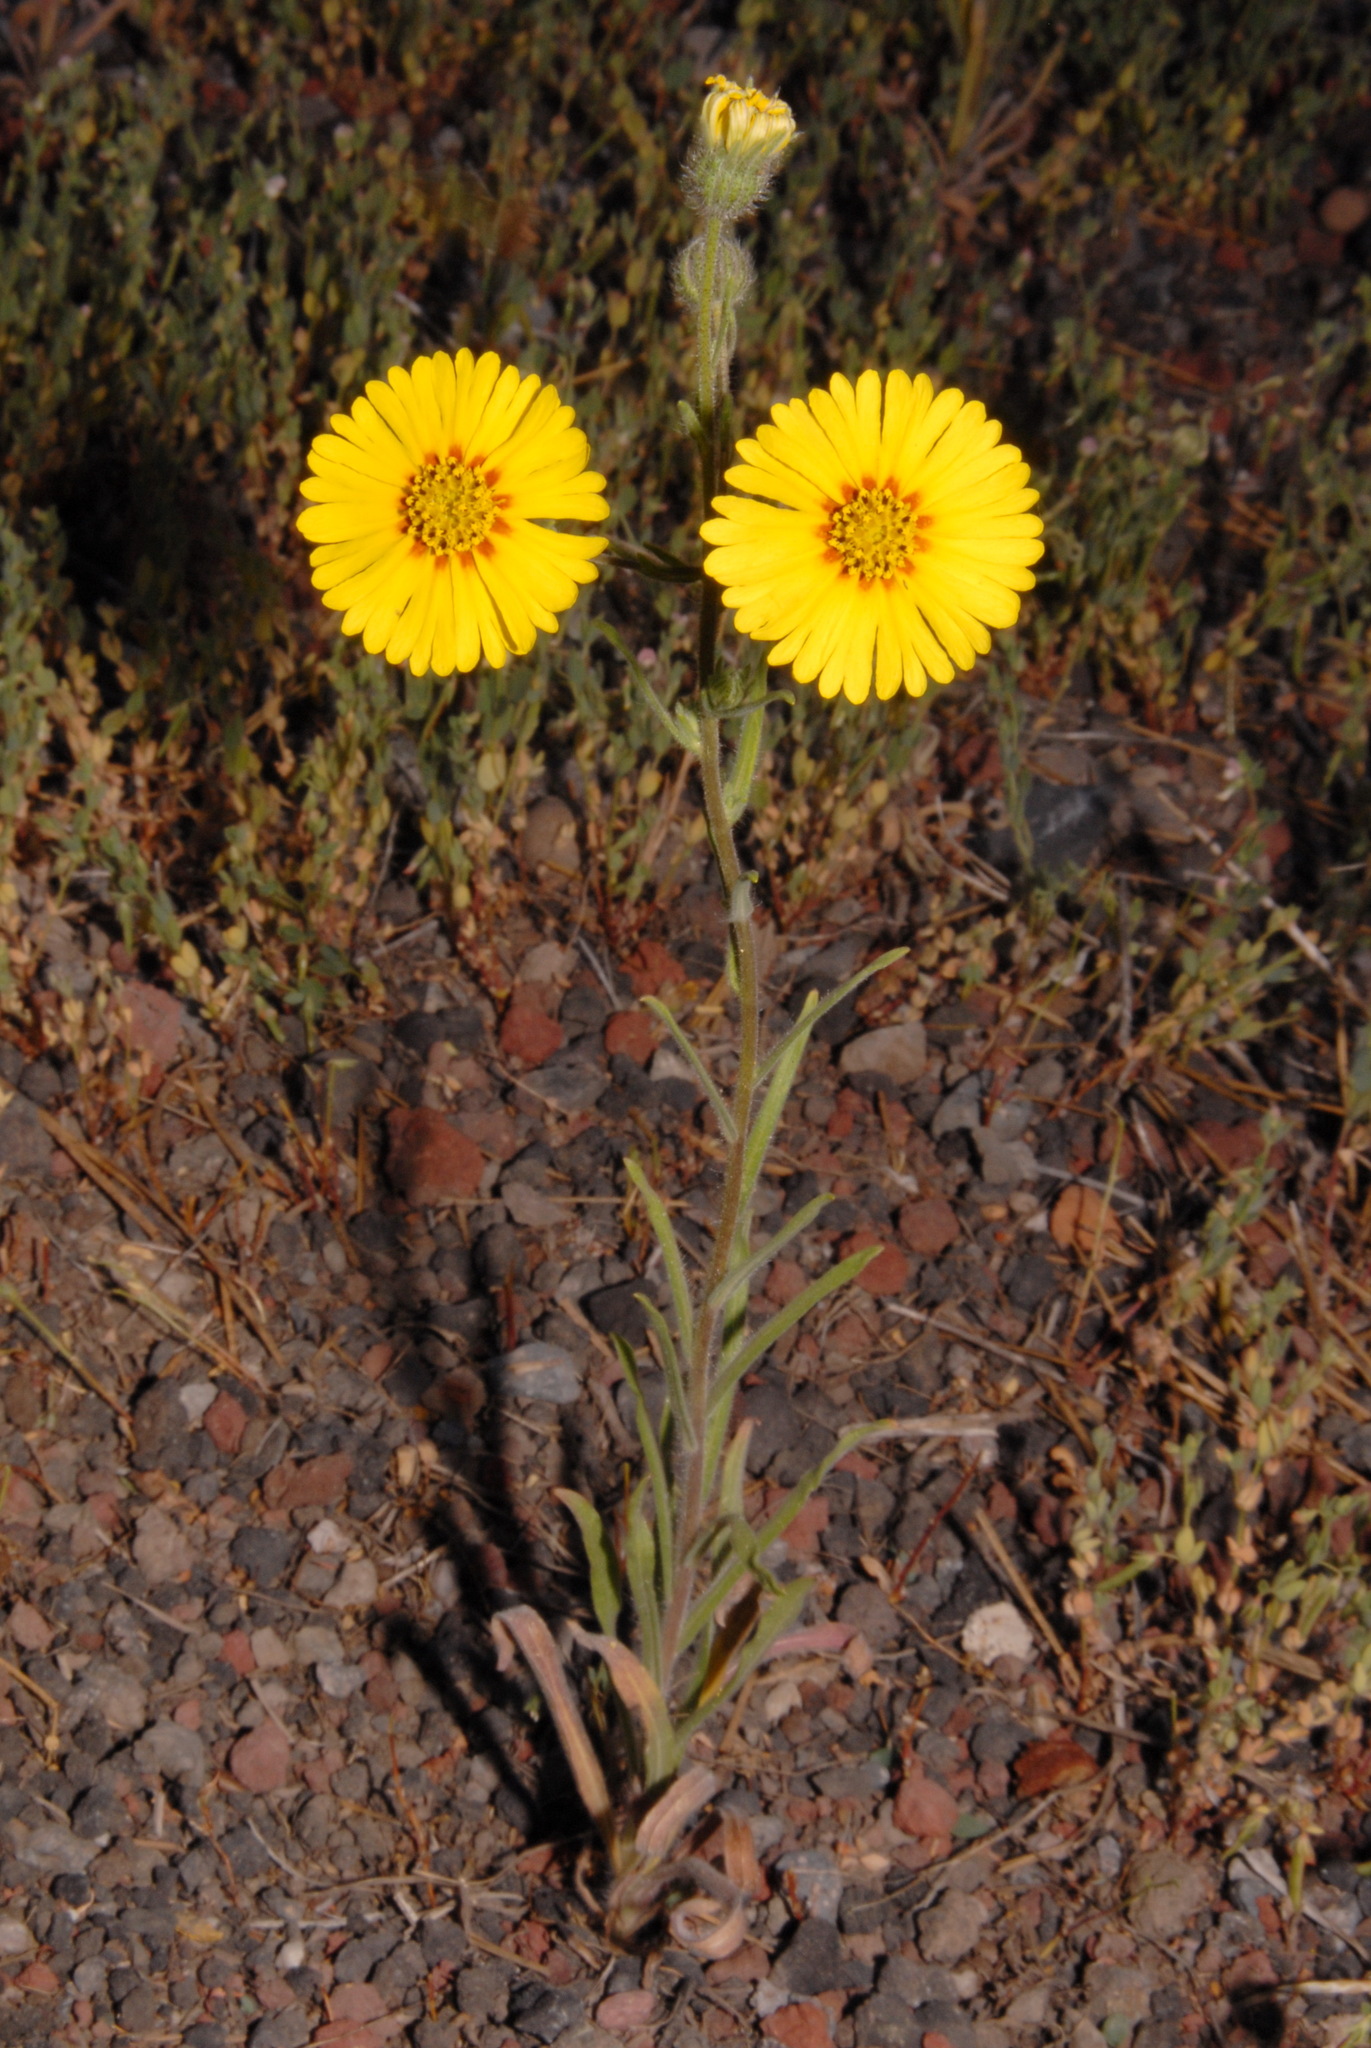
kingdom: Plantae
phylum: Tracheophyta
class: Magnoliopsida
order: Asterales
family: Asteraceae
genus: Madia
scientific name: Madia elegans
